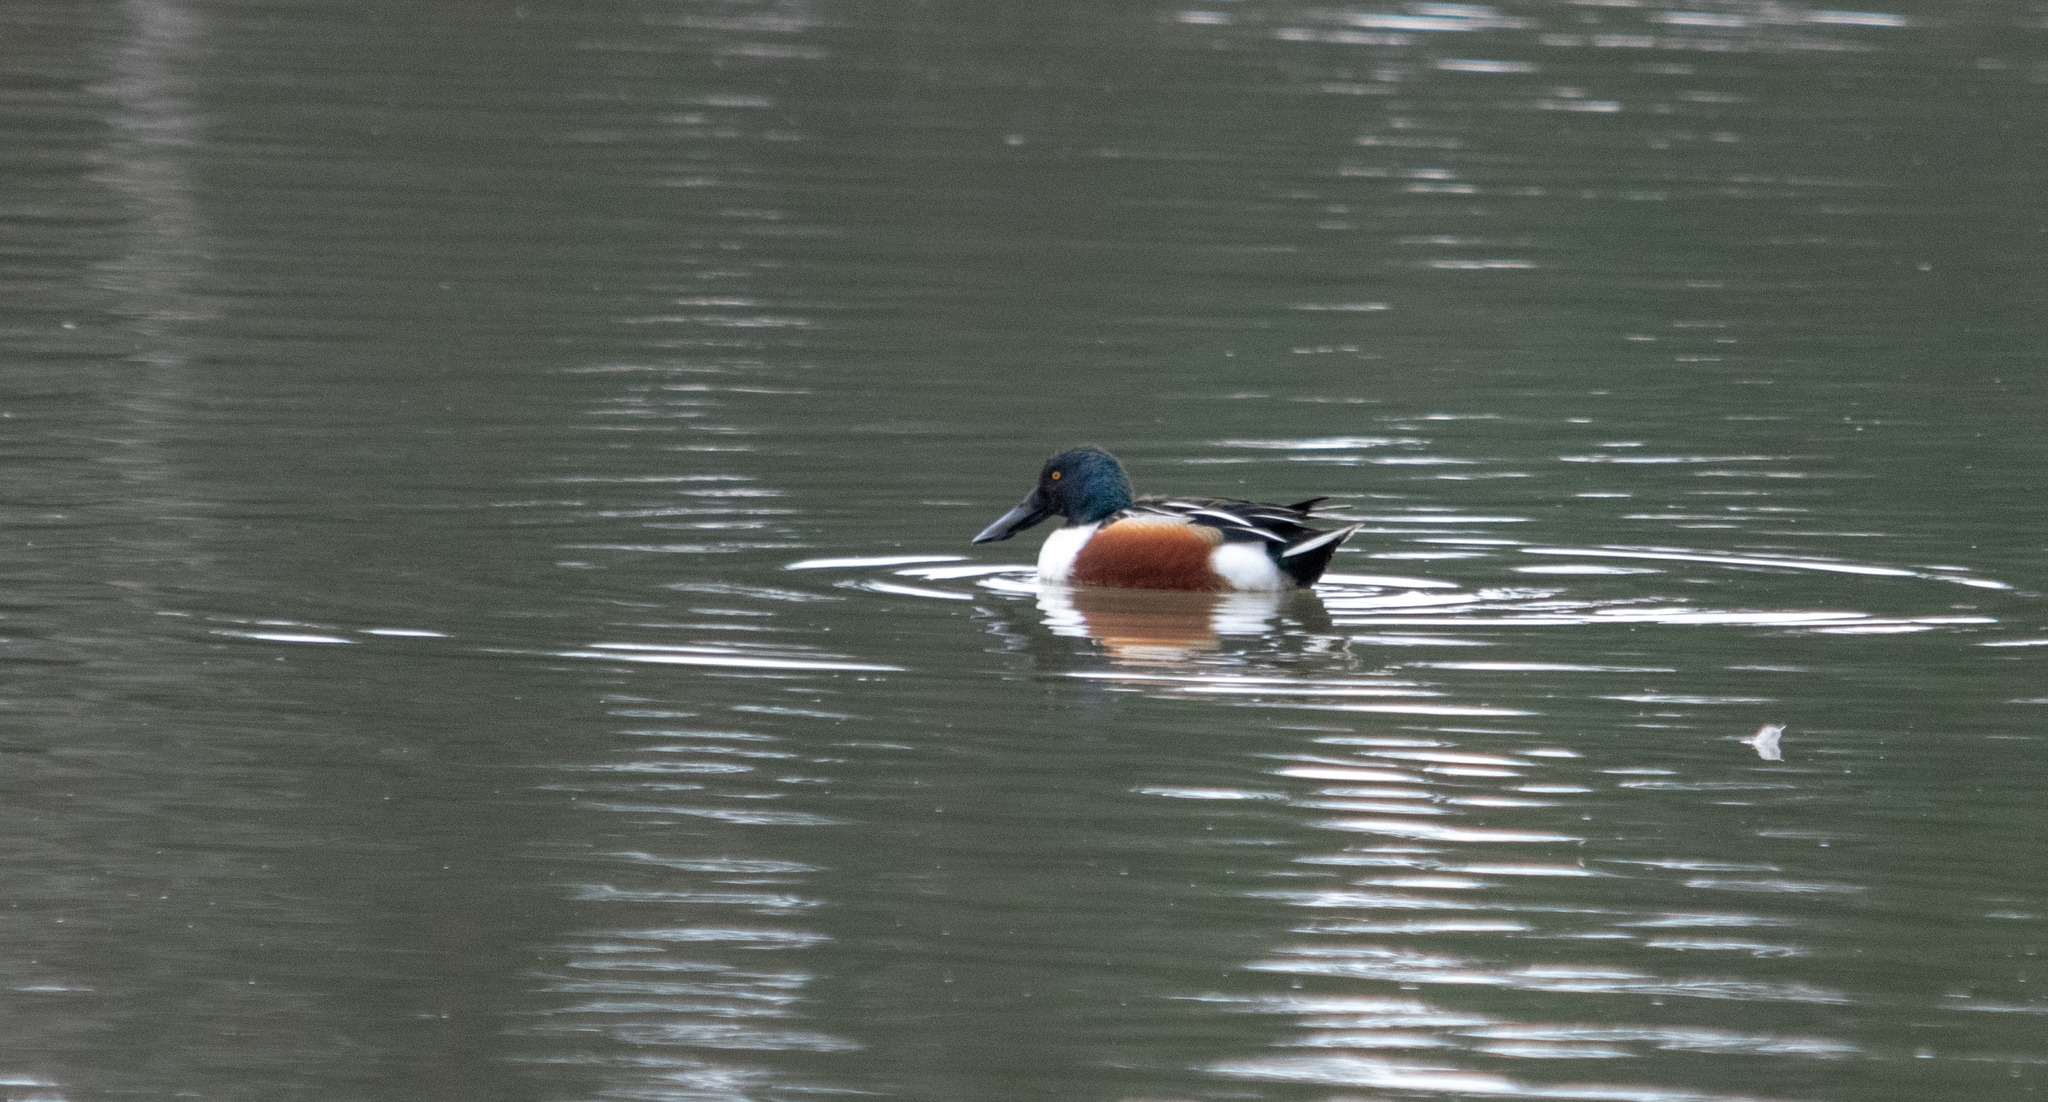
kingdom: Animalia
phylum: Chordata
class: Aves
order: Anseriformes
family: Anatidae
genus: Spatula
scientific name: Spatula clypeata
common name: Northern shoveler
